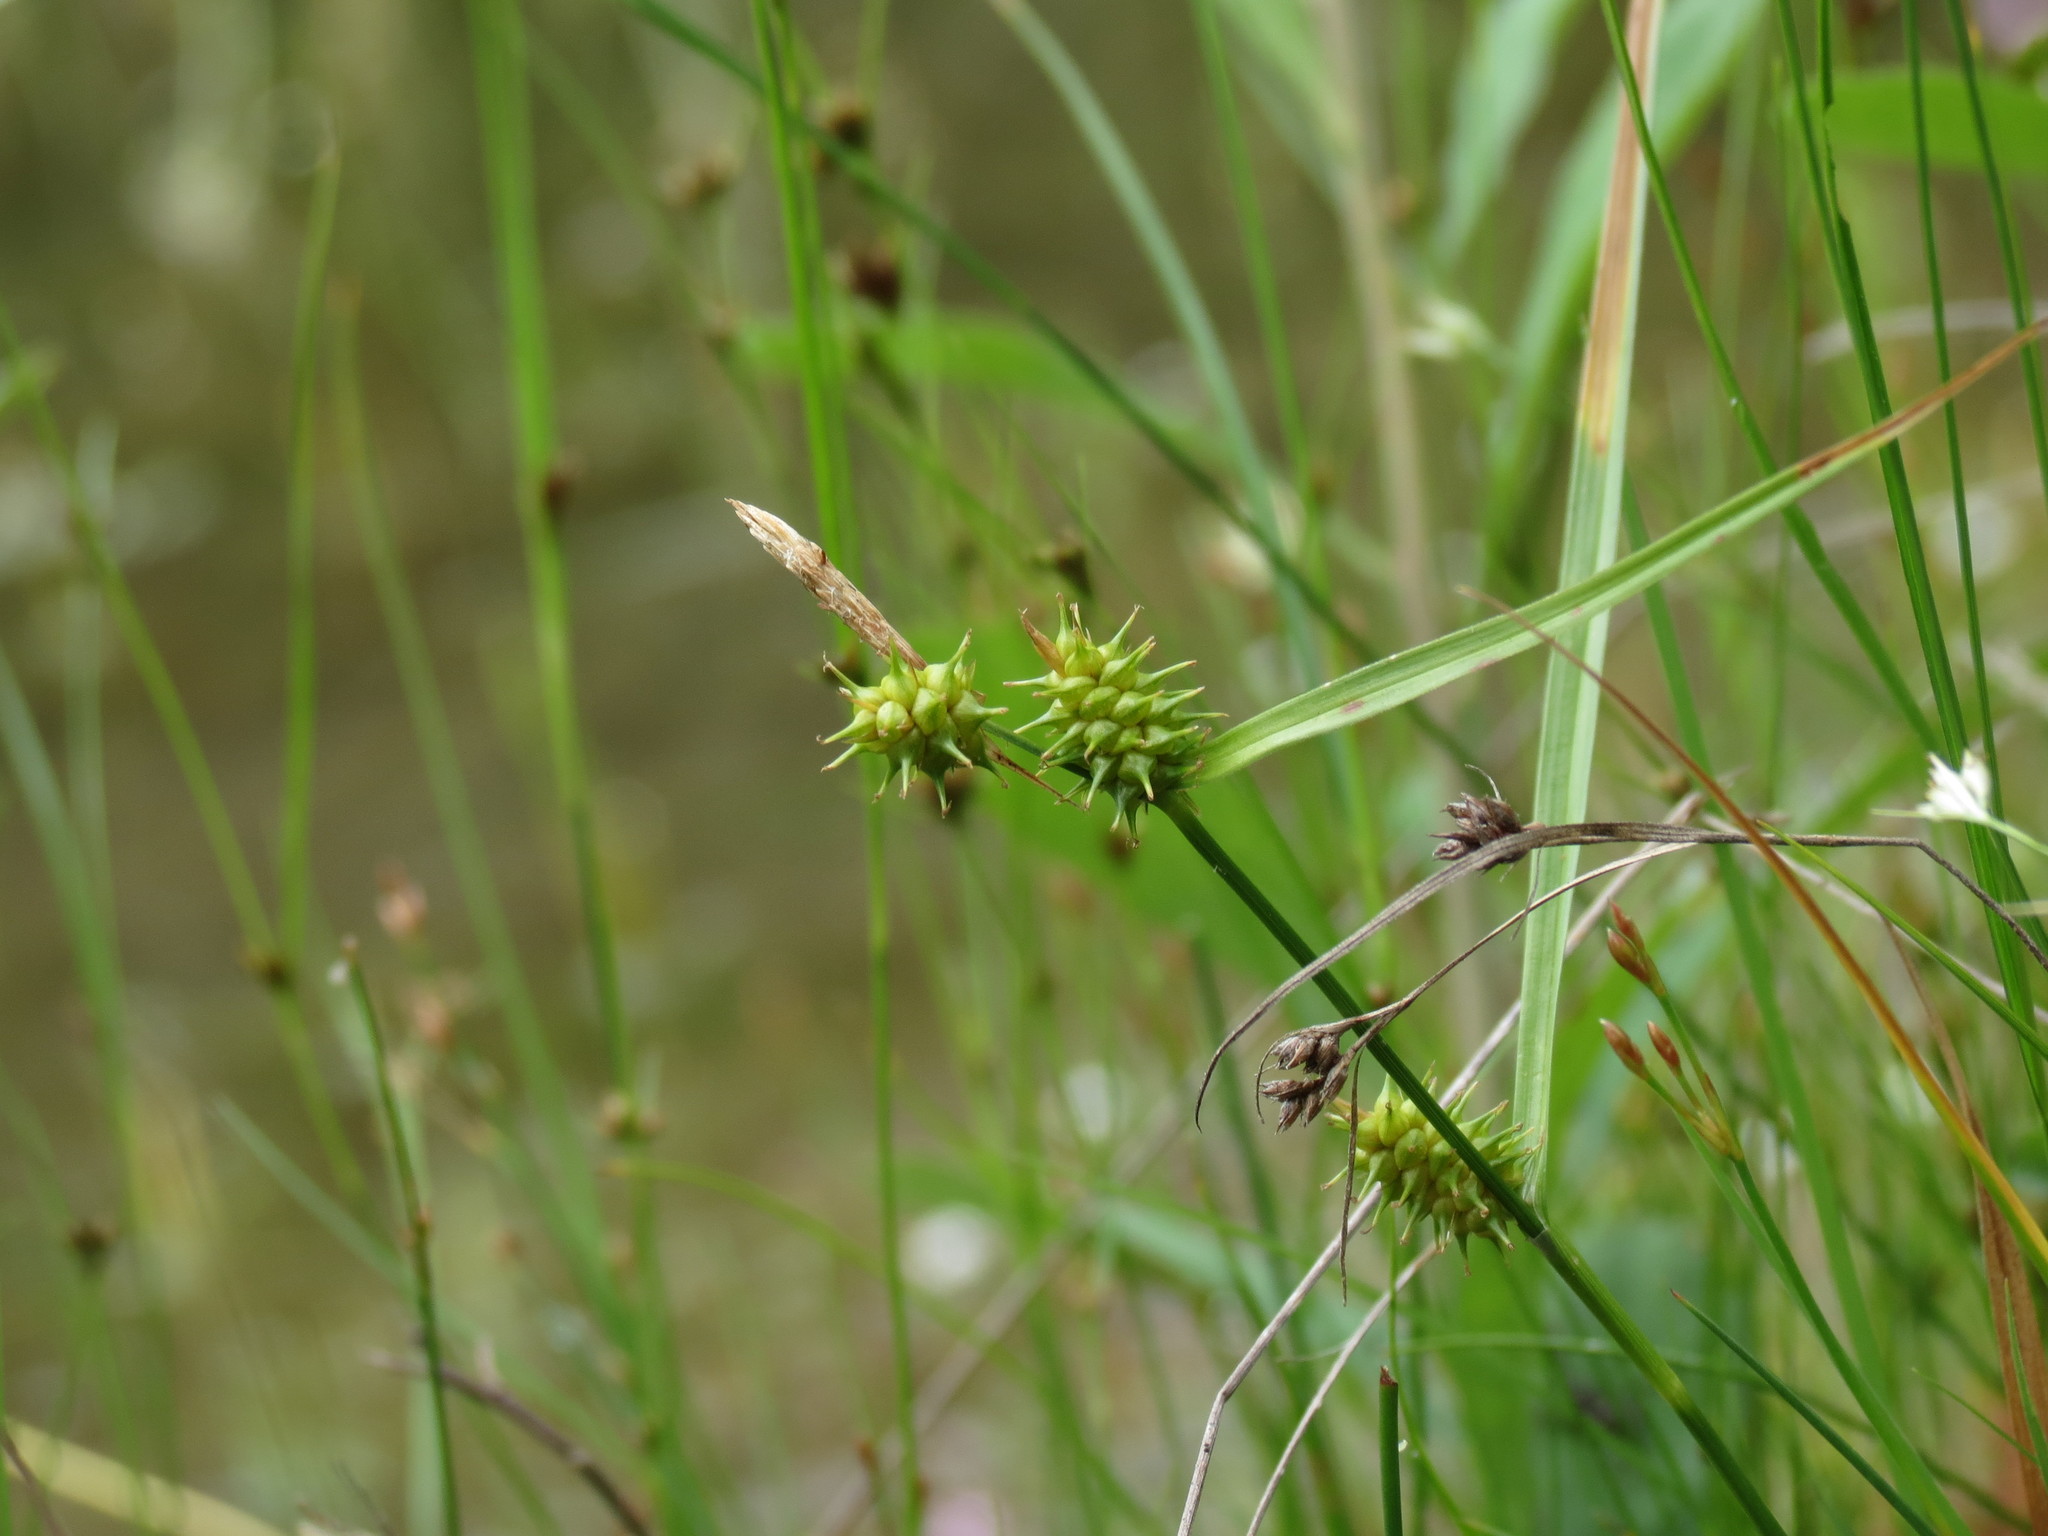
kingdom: Plantae
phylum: Tracheophyta
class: Liliopsida
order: Poales
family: Cyperaceae
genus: Carex
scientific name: Carex cryptolepis
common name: Northeastern sedge
